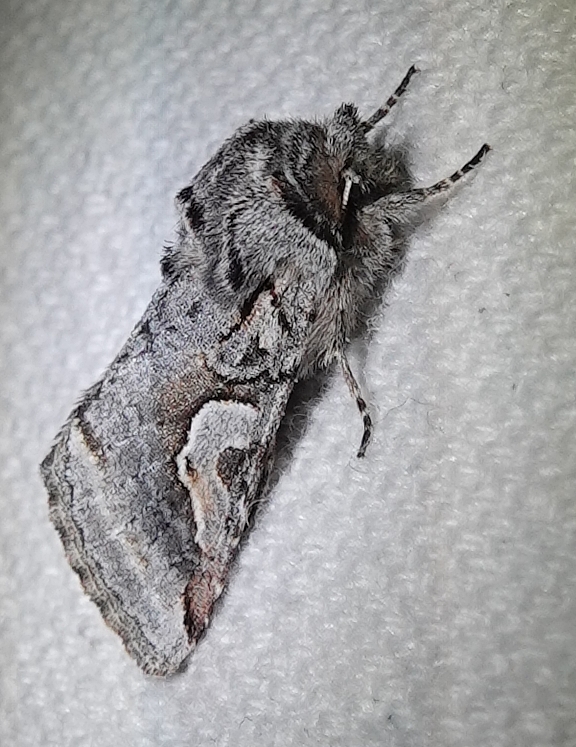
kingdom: Animalia
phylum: Arthropoda
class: Insecta
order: Lepidoptera
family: Noctuidae
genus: Stretchia
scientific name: Stretchia plusiaeformis
